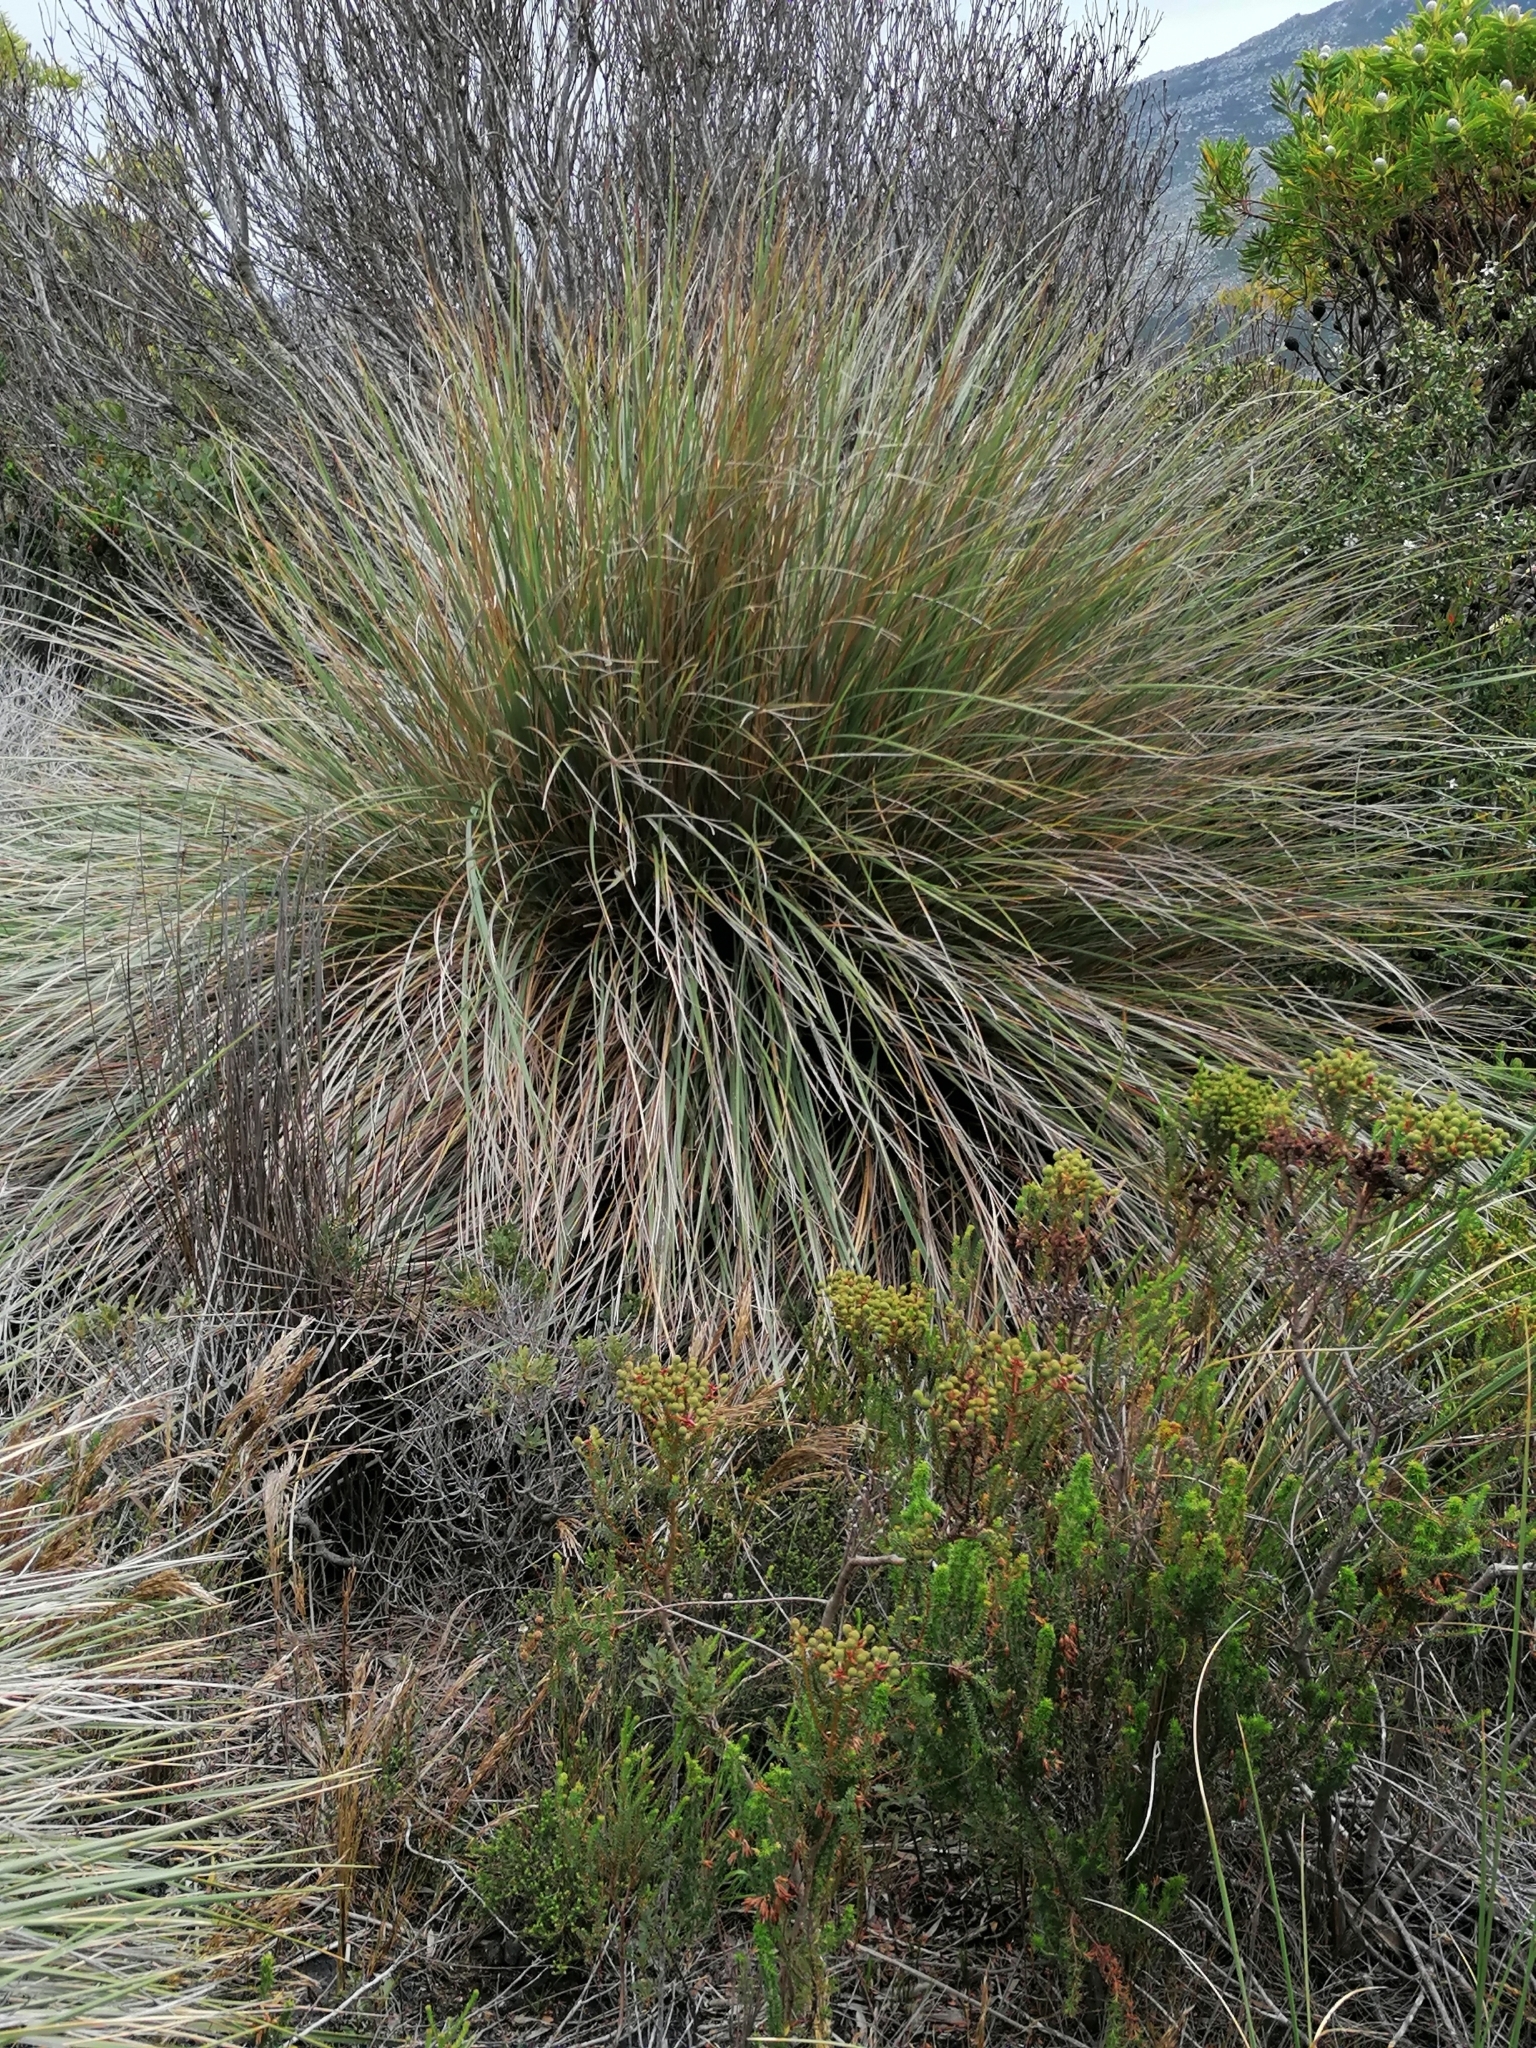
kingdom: Plantae
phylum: Tracheophyta
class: Liliopsida
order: Poales
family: Poaceae
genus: Capeochloa
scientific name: Capeochloa cincta
